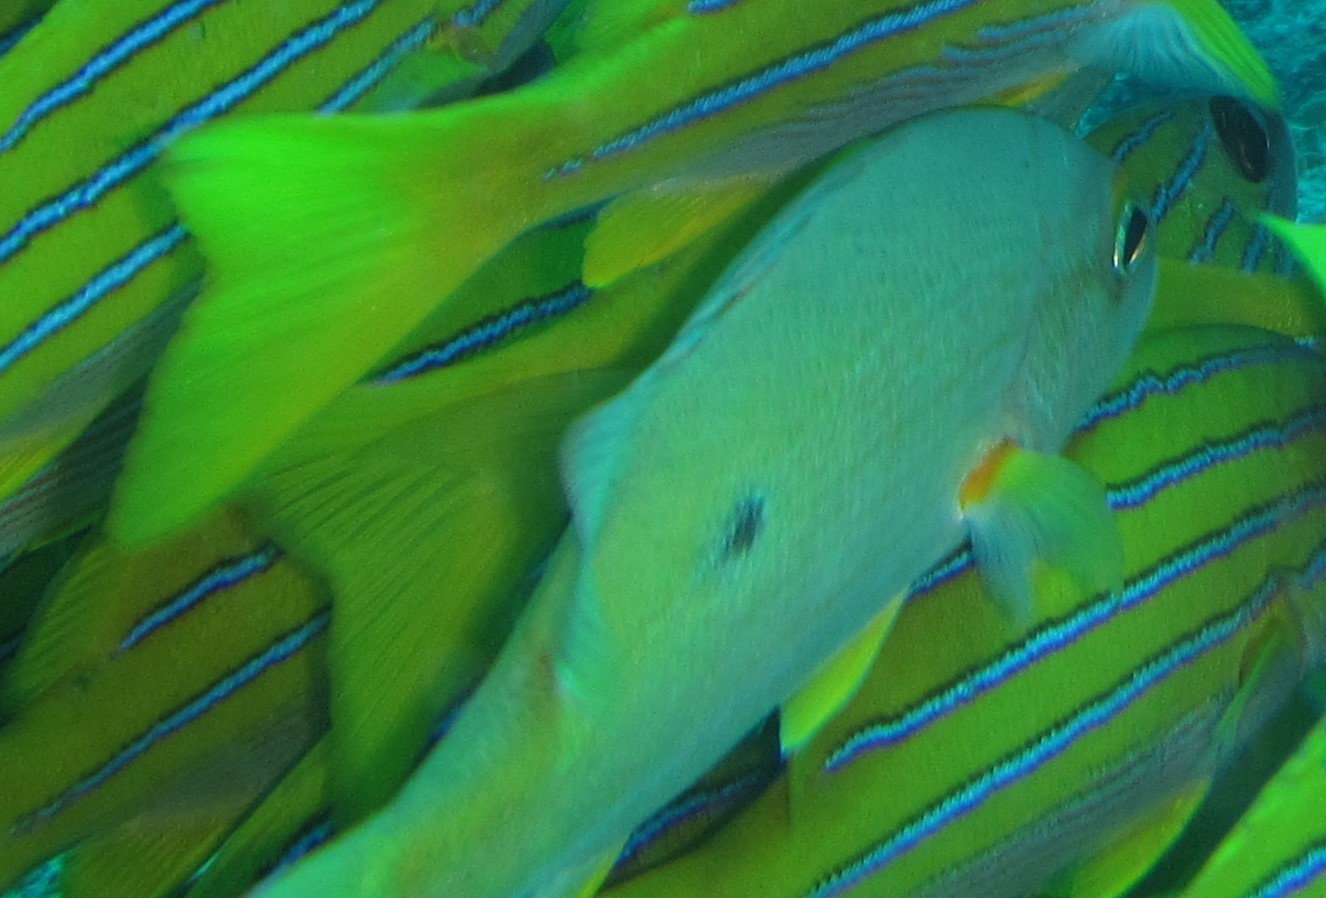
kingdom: Animalia
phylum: Chordata
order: Perciformes
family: Lutjanidae
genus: Lutjanus
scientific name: Lutjanus monostigma
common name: Onespot snapper
